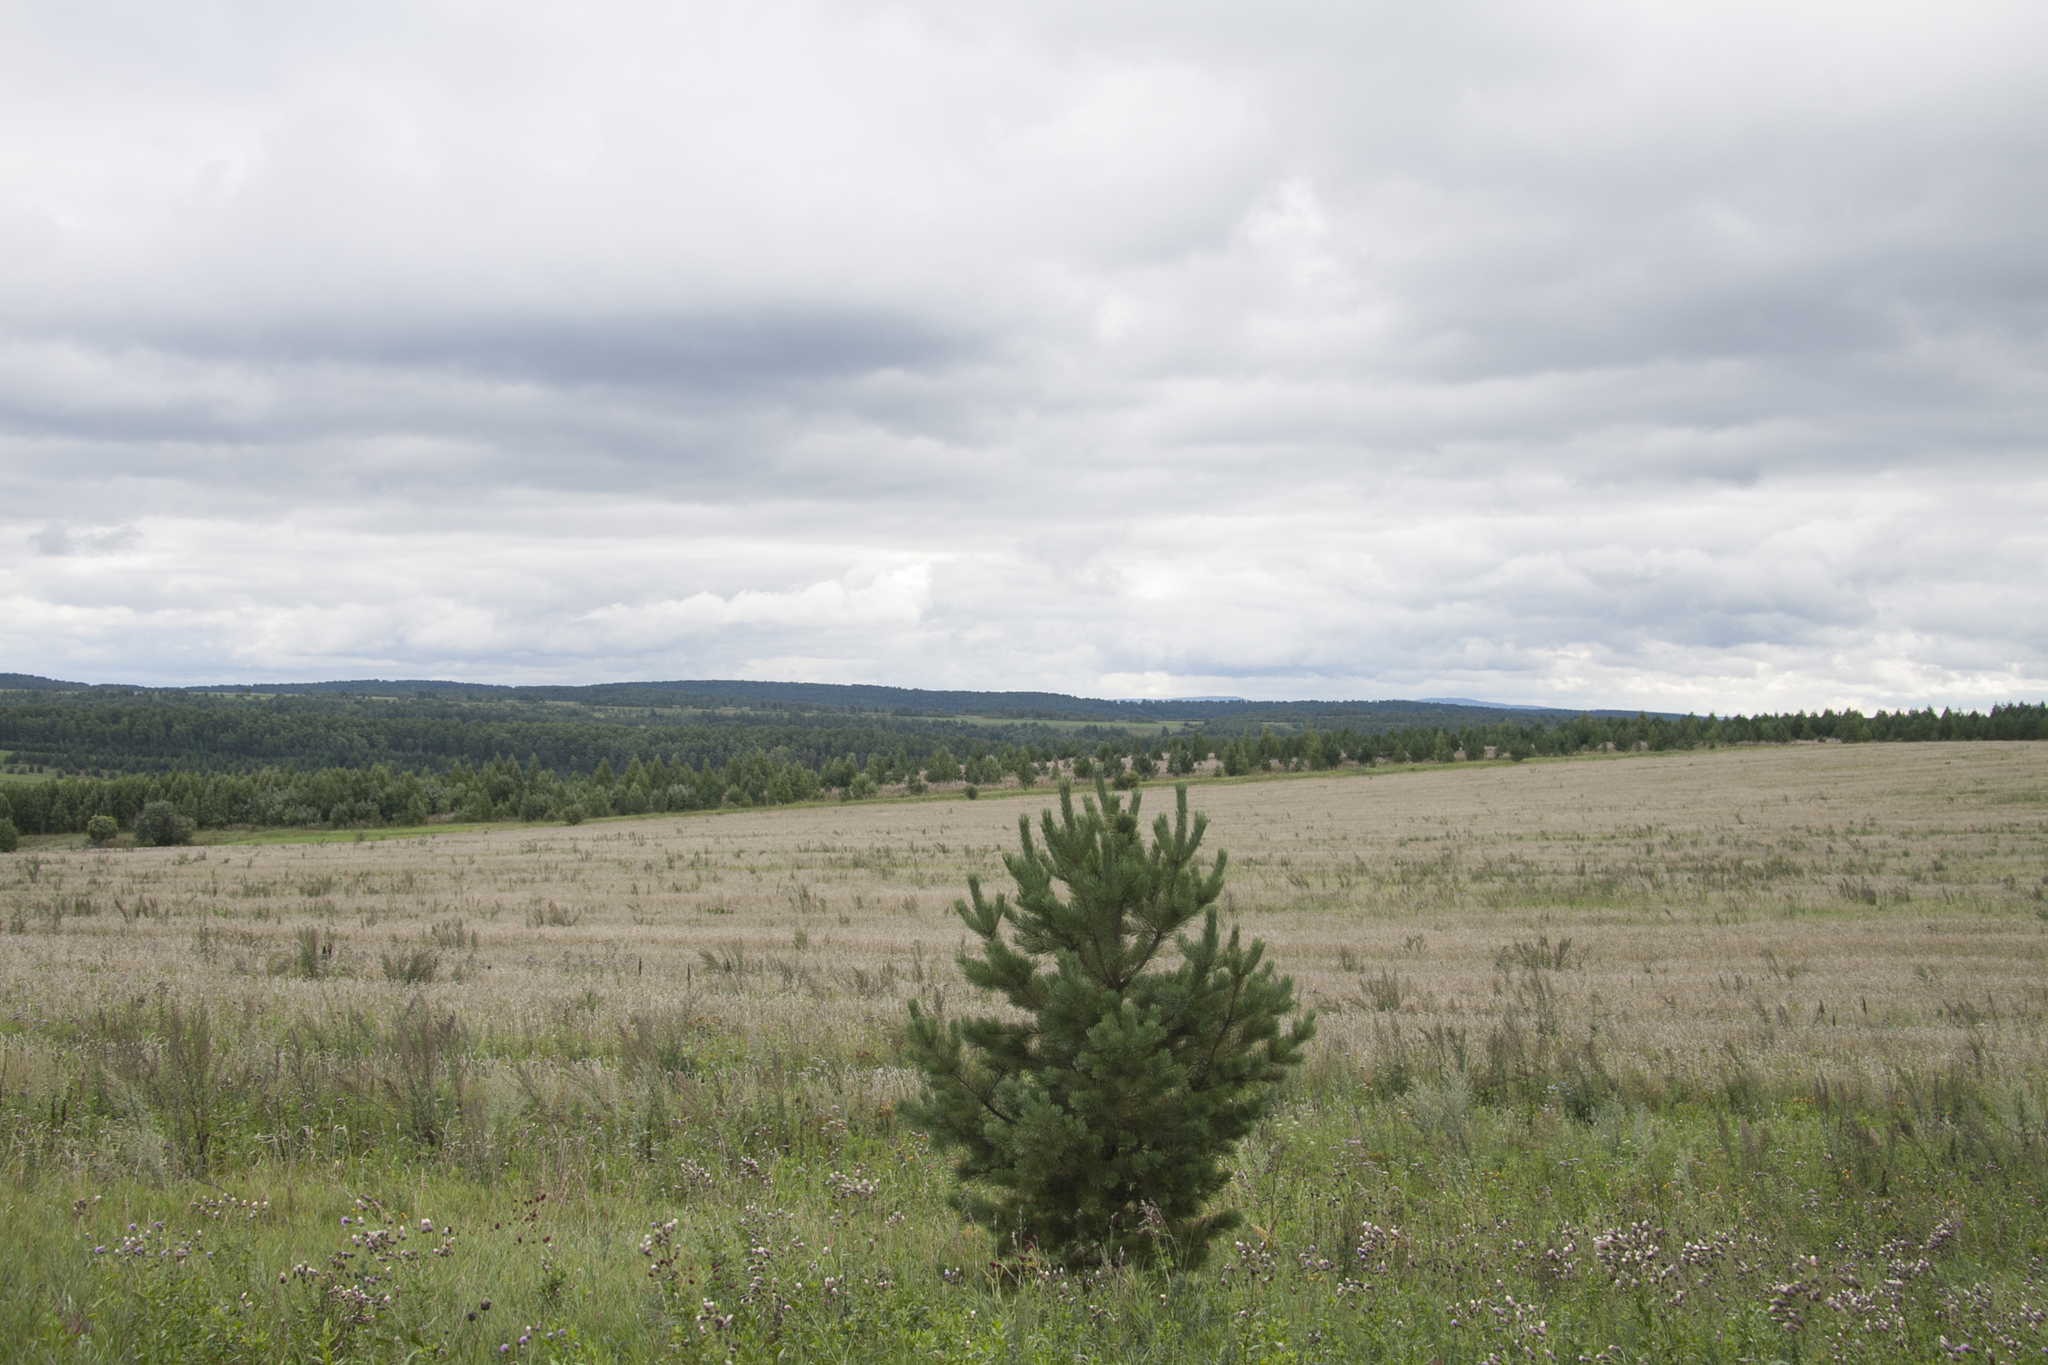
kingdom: Plantae
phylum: Tracheophyta
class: Pinopsida
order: Pinales
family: Pinaceae
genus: Pinus
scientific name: Pinus sylvestris
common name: Scots pine
